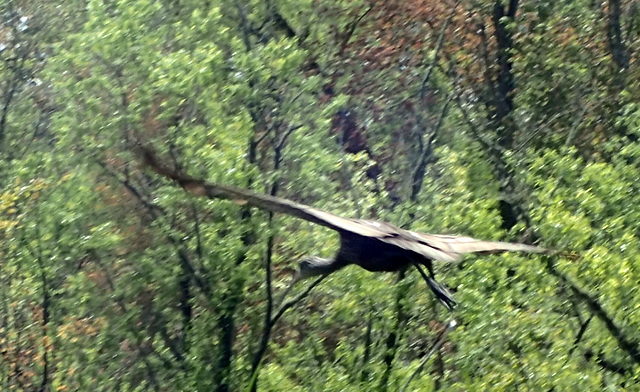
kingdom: Animalia
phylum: Chordata
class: Aves
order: Gruiformes
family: Aramidae
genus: Aramus
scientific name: Aramus guarauna
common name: Limpkin
